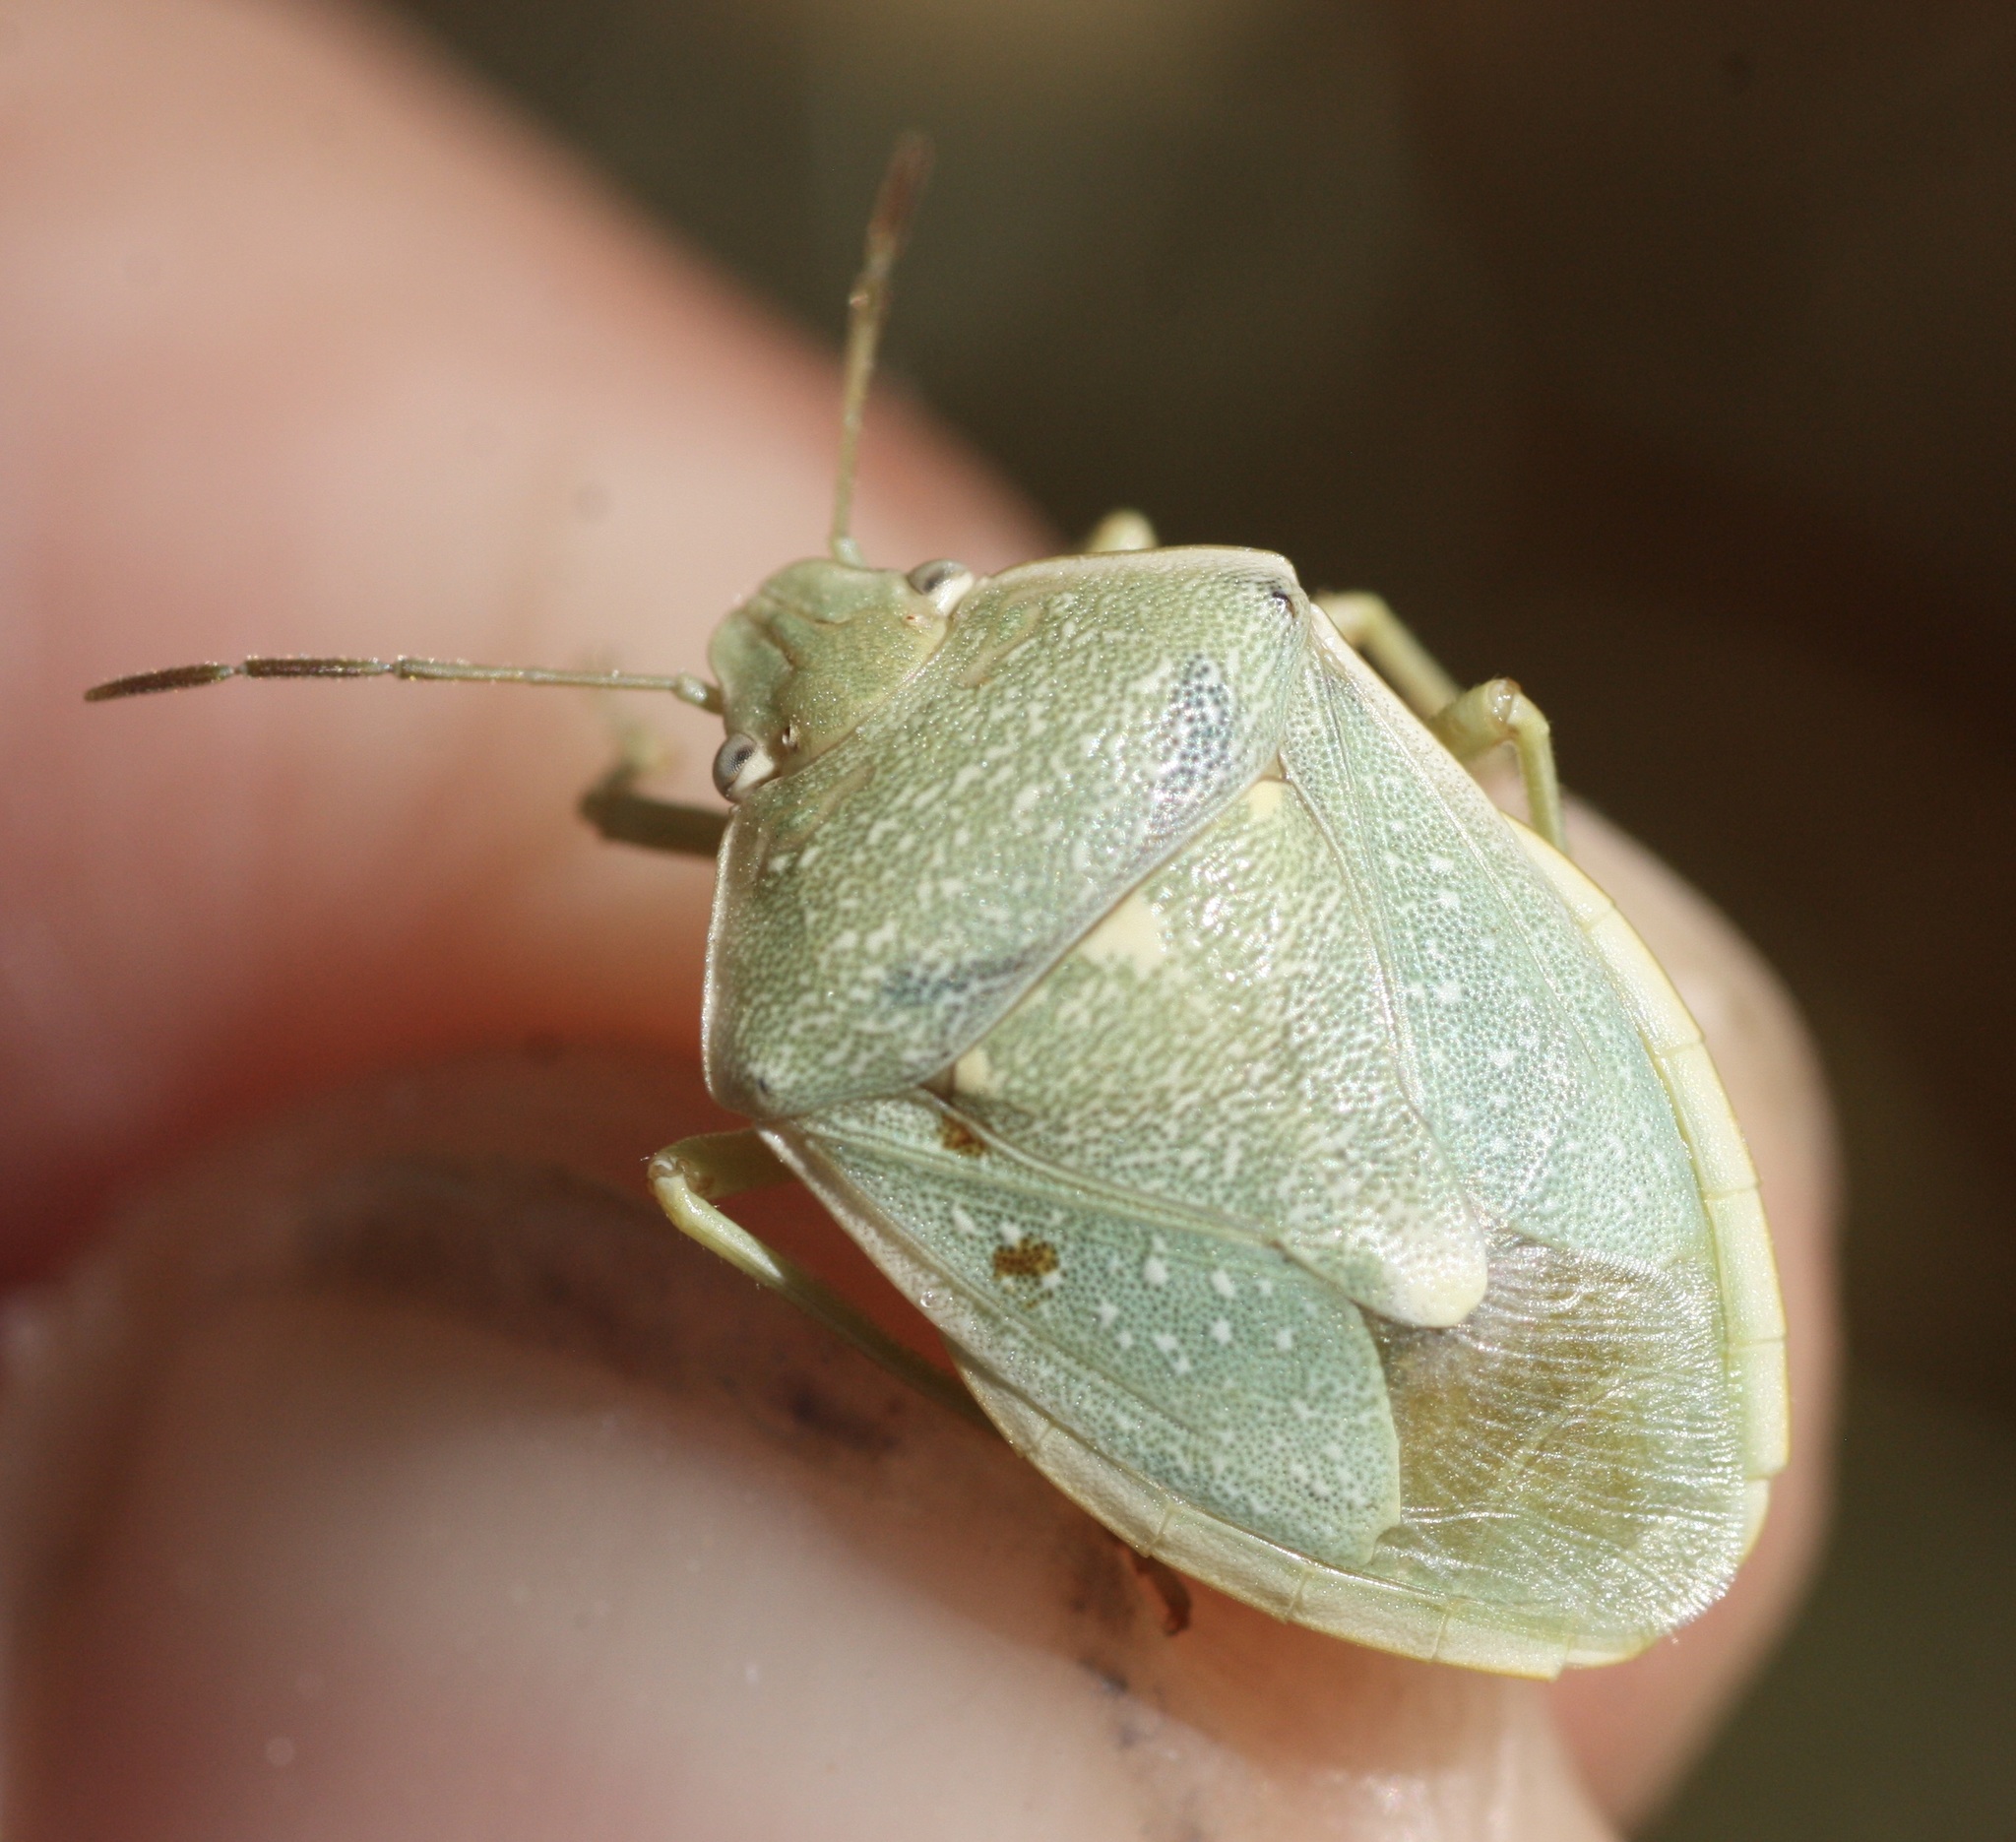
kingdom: Animalia
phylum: Arthropoda
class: Insecta
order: Hemiptera
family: Pentatomidae
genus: Chlorochroa
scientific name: Chlorochroa uhleri
